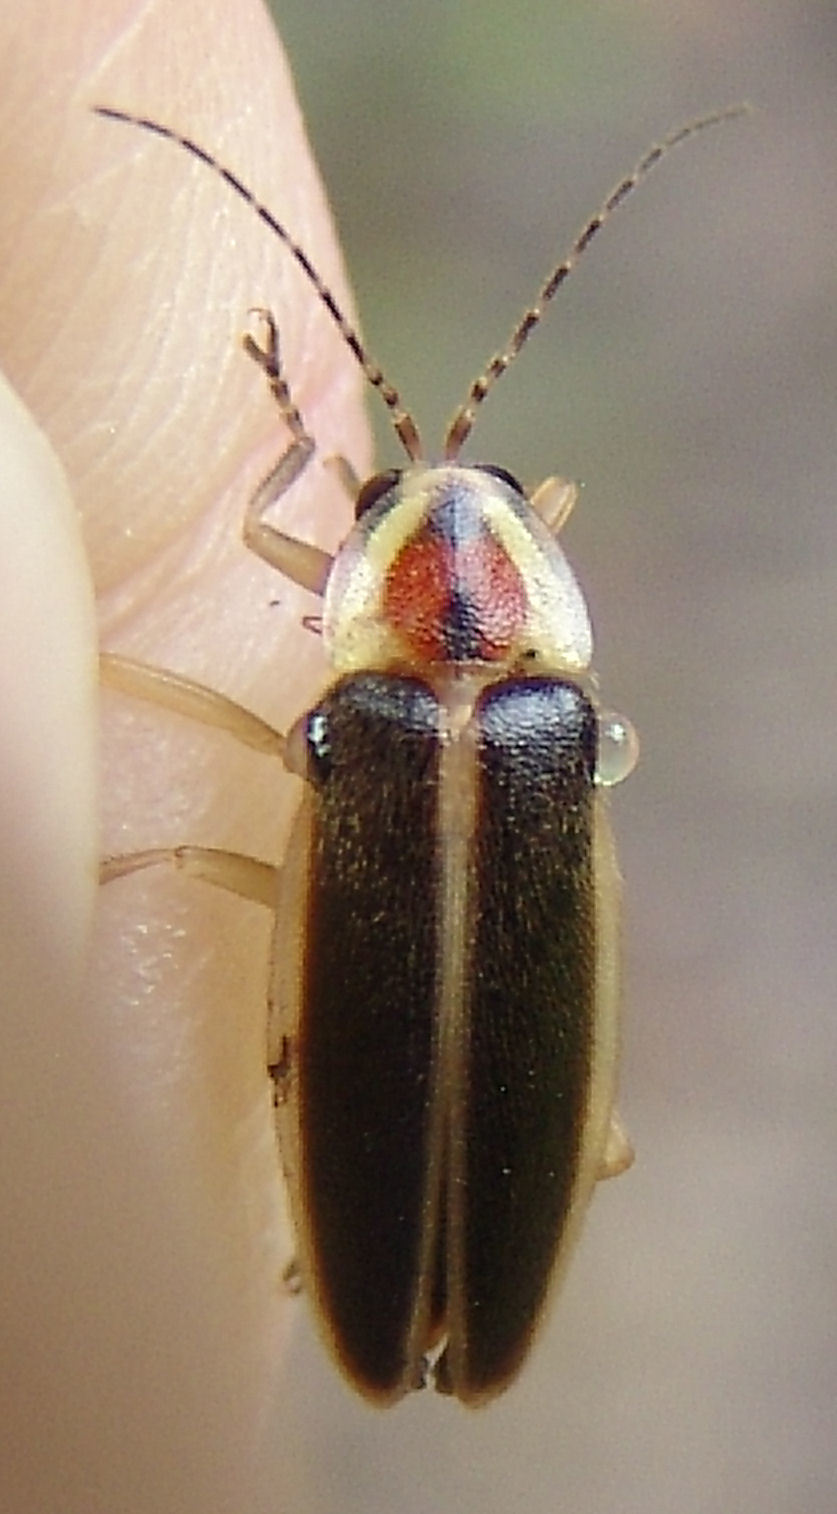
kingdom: Animalia
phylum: Arthropoda
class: Insecta
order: Coleoptera
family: Lampyridae
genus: Photuris
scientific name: Photuris
